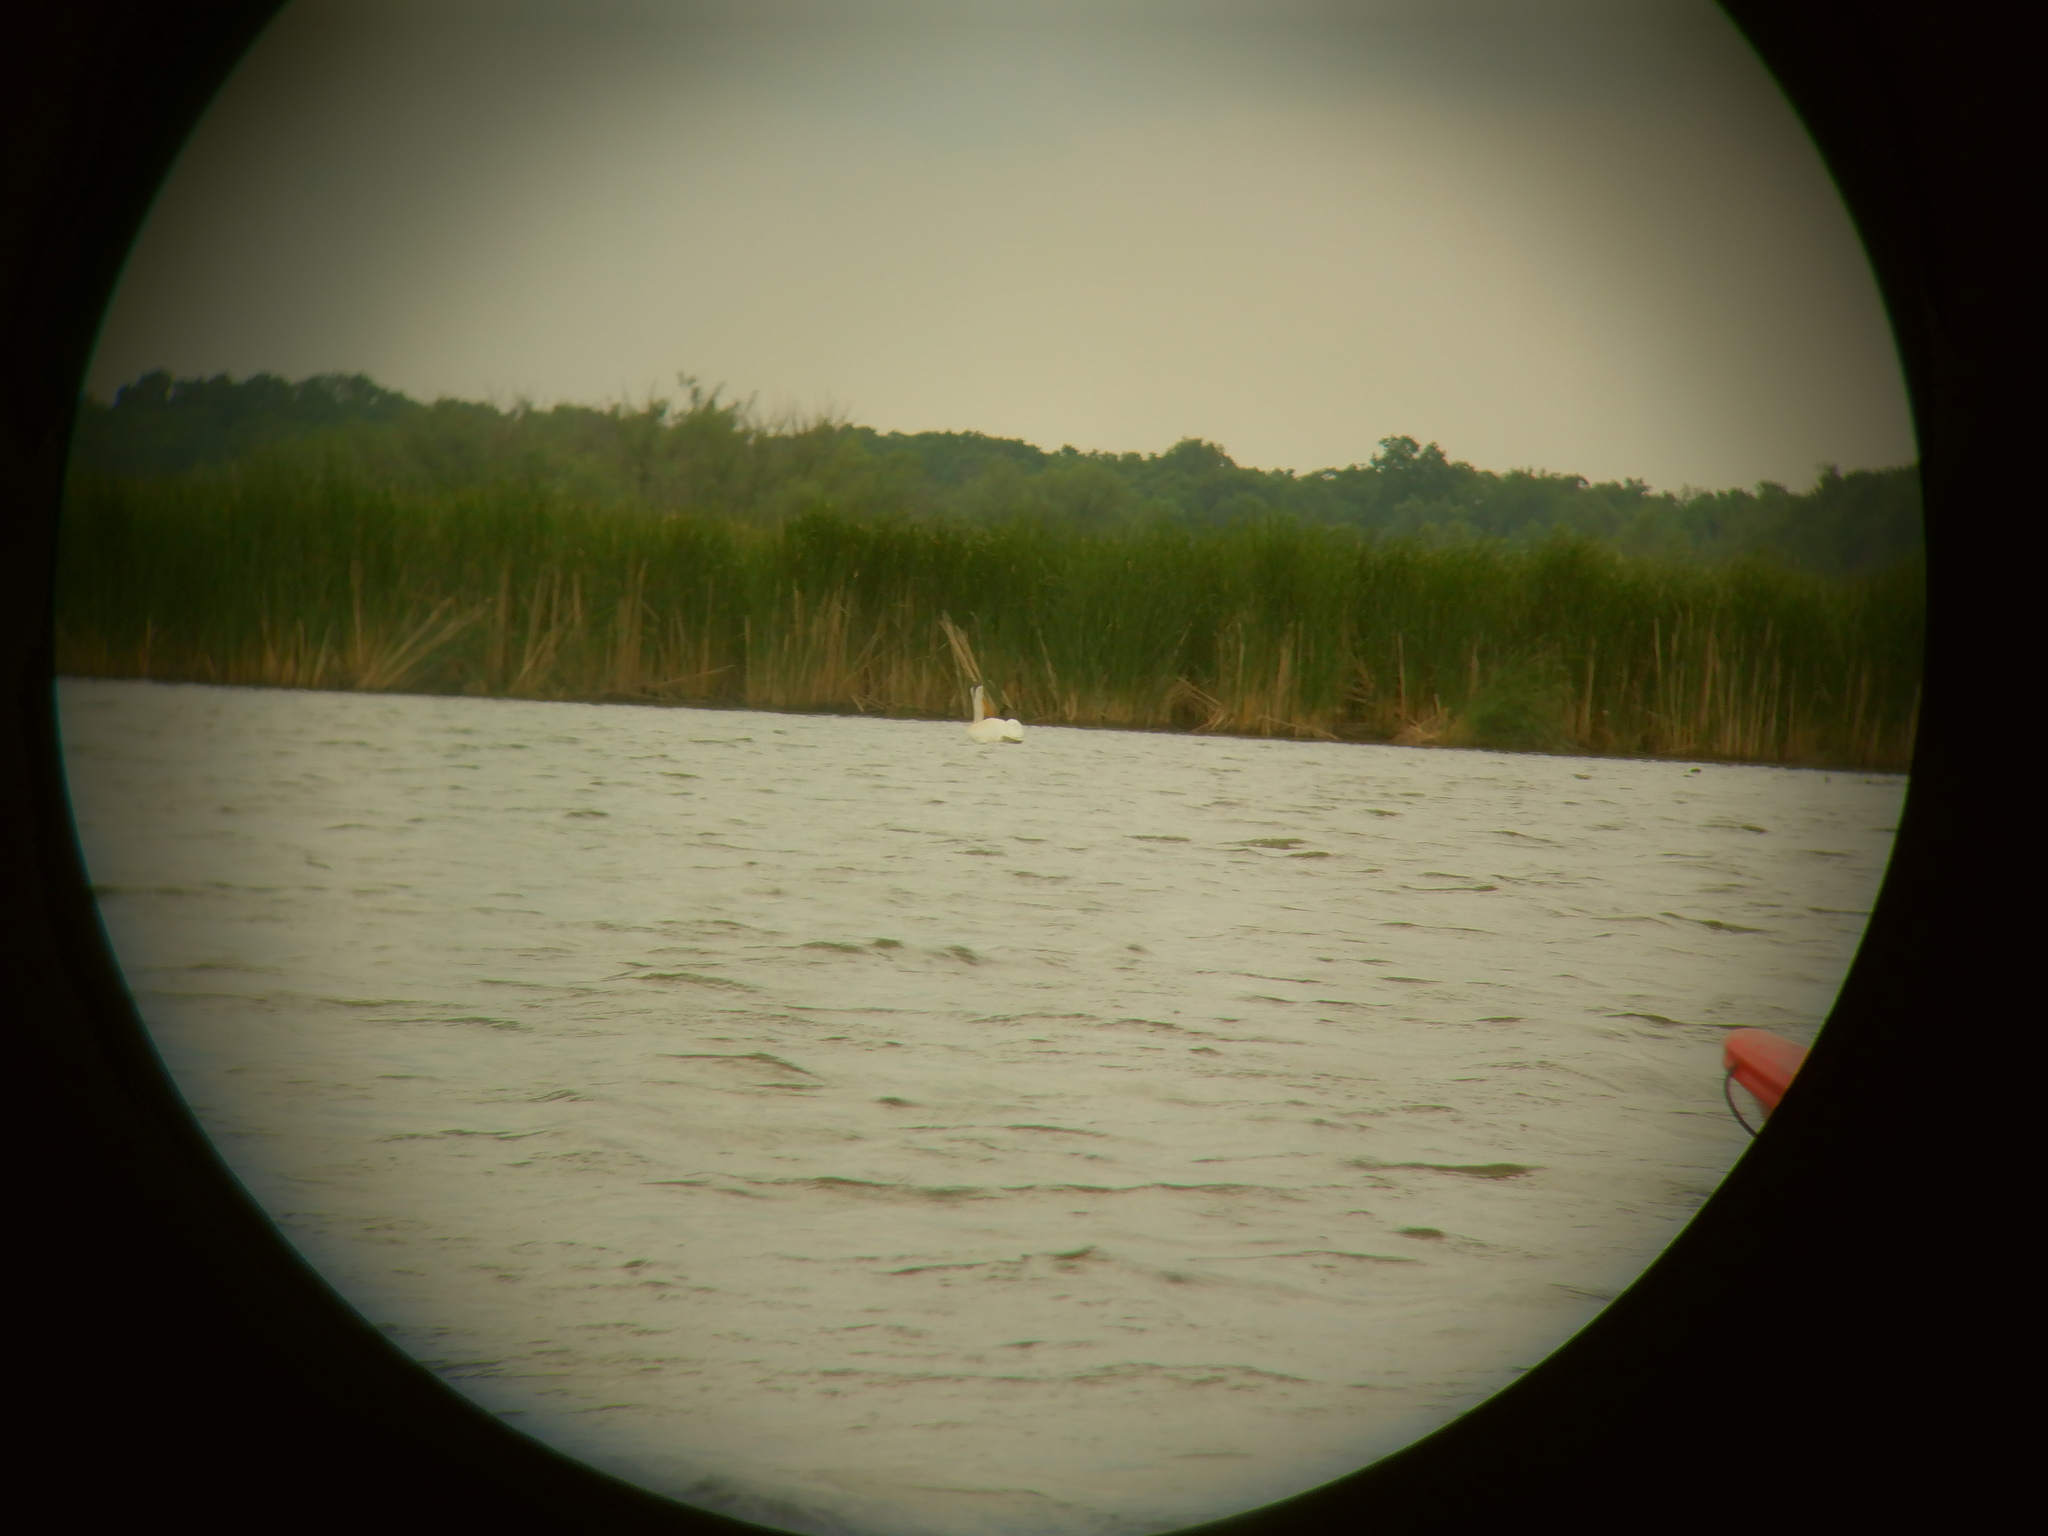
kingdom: Animalia
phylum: Chordata
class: Aves
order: Pelecaniformes
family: Pelecanidae
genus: Pelecanus
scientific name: Pelecanus erythrorhynchos
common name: American white pelican
